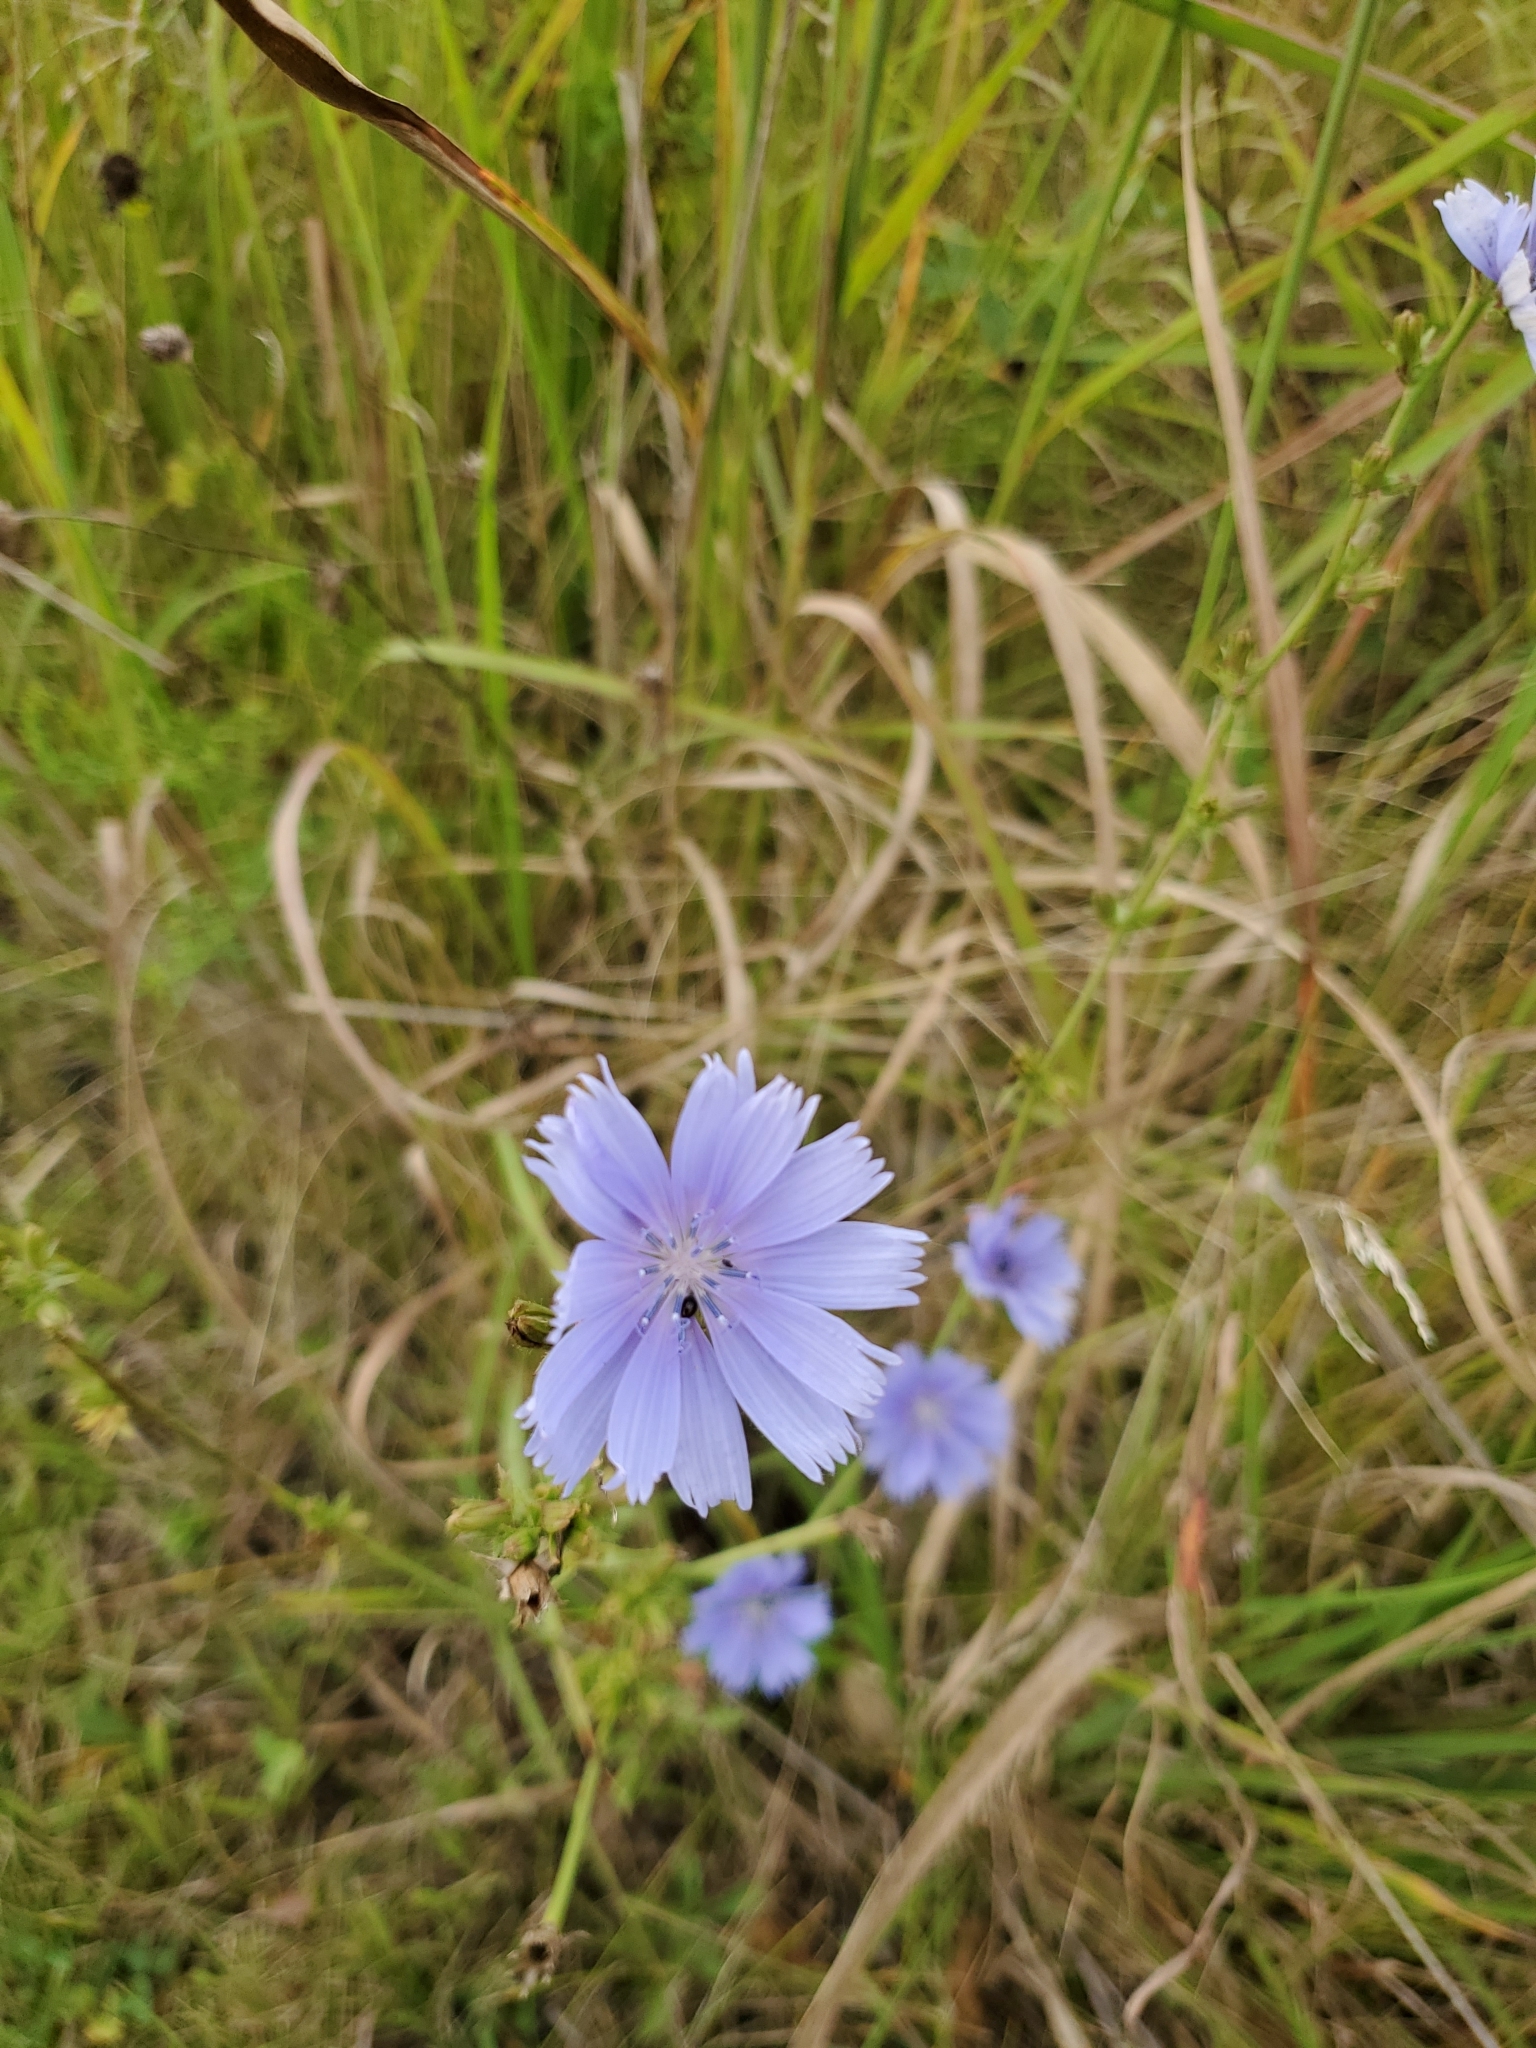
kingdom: Plantae
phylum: Tracheophyta
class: Magnoliopsida
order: Asterales
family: Asteraceae
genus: Cichorium
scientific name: Cichorium intybus
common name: Chicory
